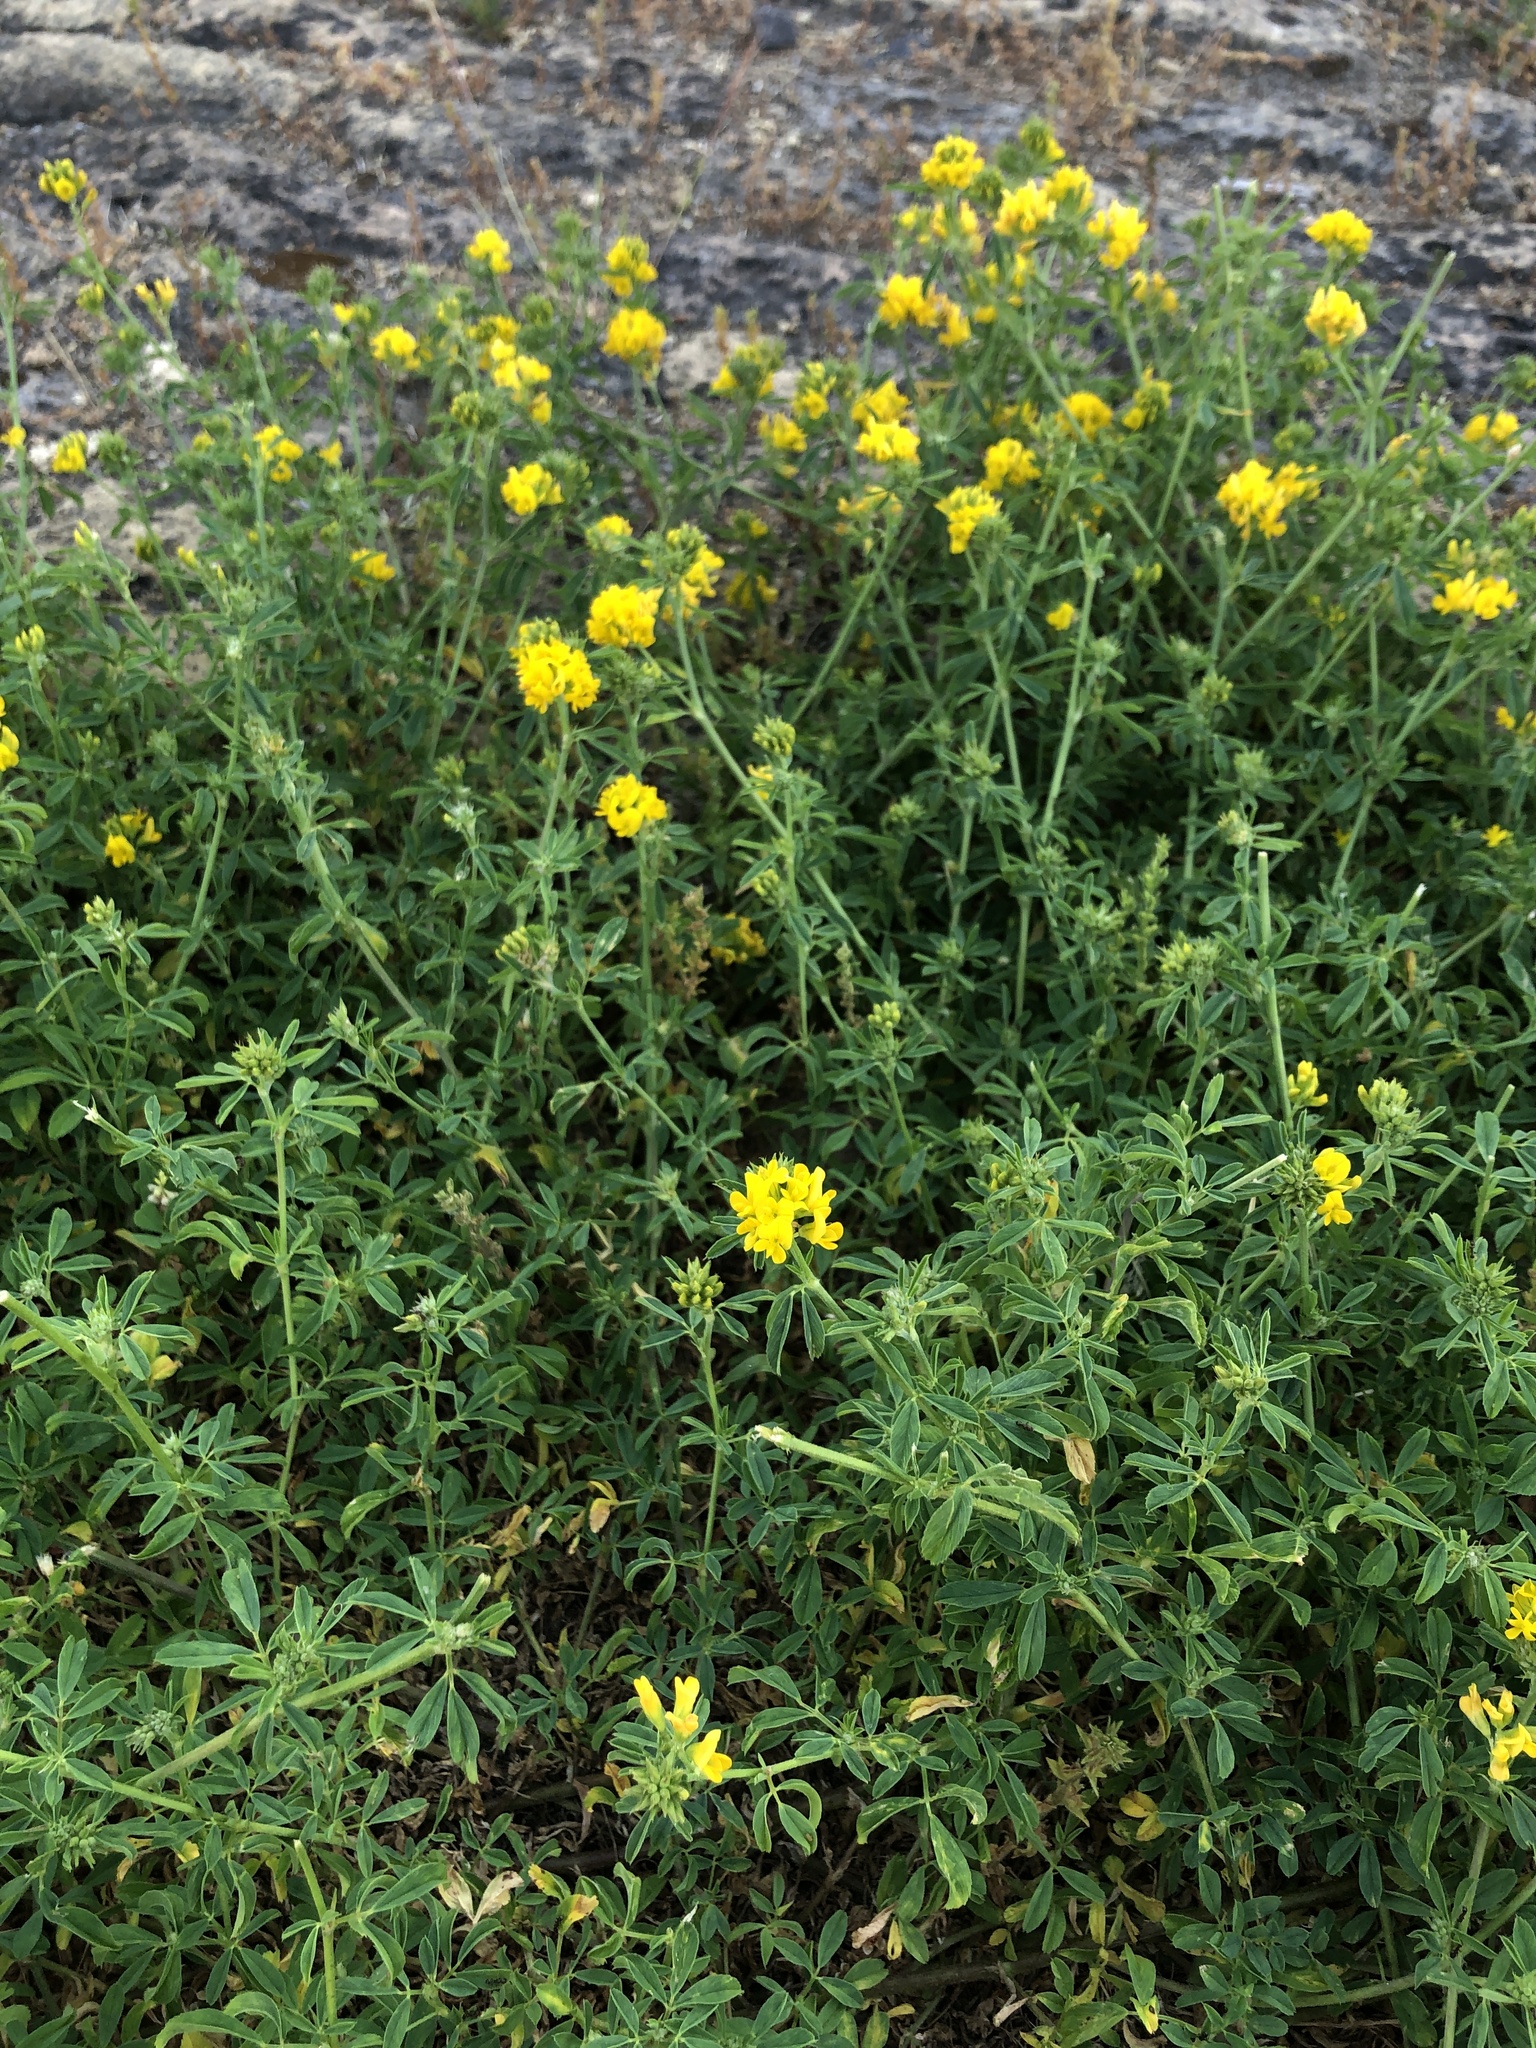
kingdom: Plantae
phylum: Tracheophyta
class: Magnoliopsida
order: Fabales
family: Fabaceae
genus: Medicago
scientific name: Medicago falcata
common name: Sickle medick
